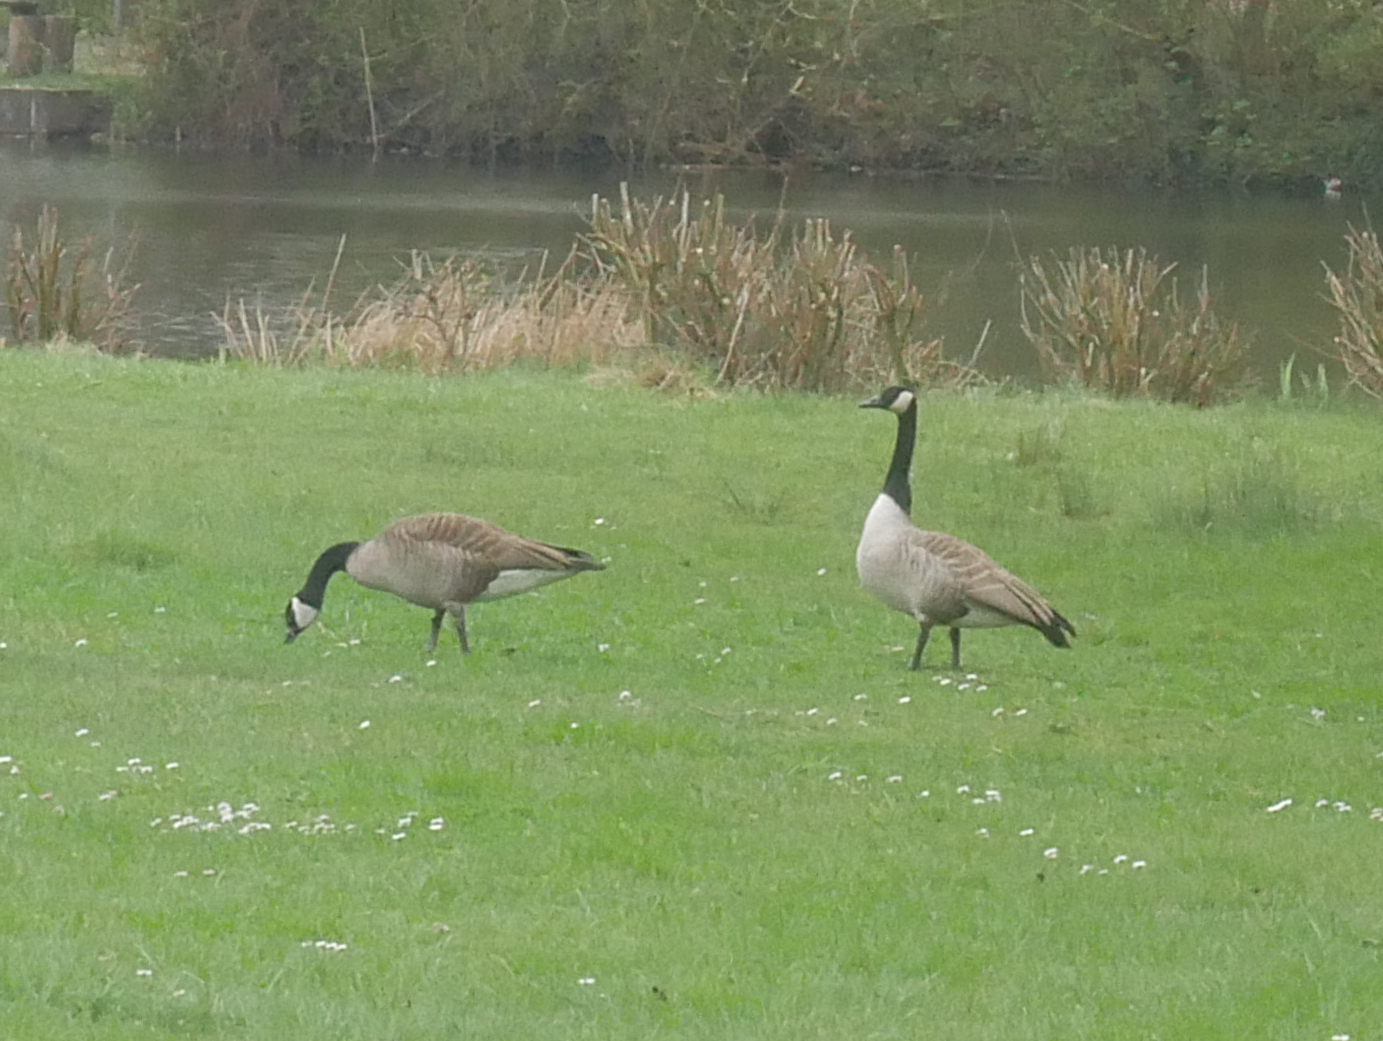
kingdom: Animalia
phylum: Chordata
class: Aves
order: Anseriformes
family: Anatidae
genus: Branta
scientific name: Branta canadensis
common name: Canada goose
